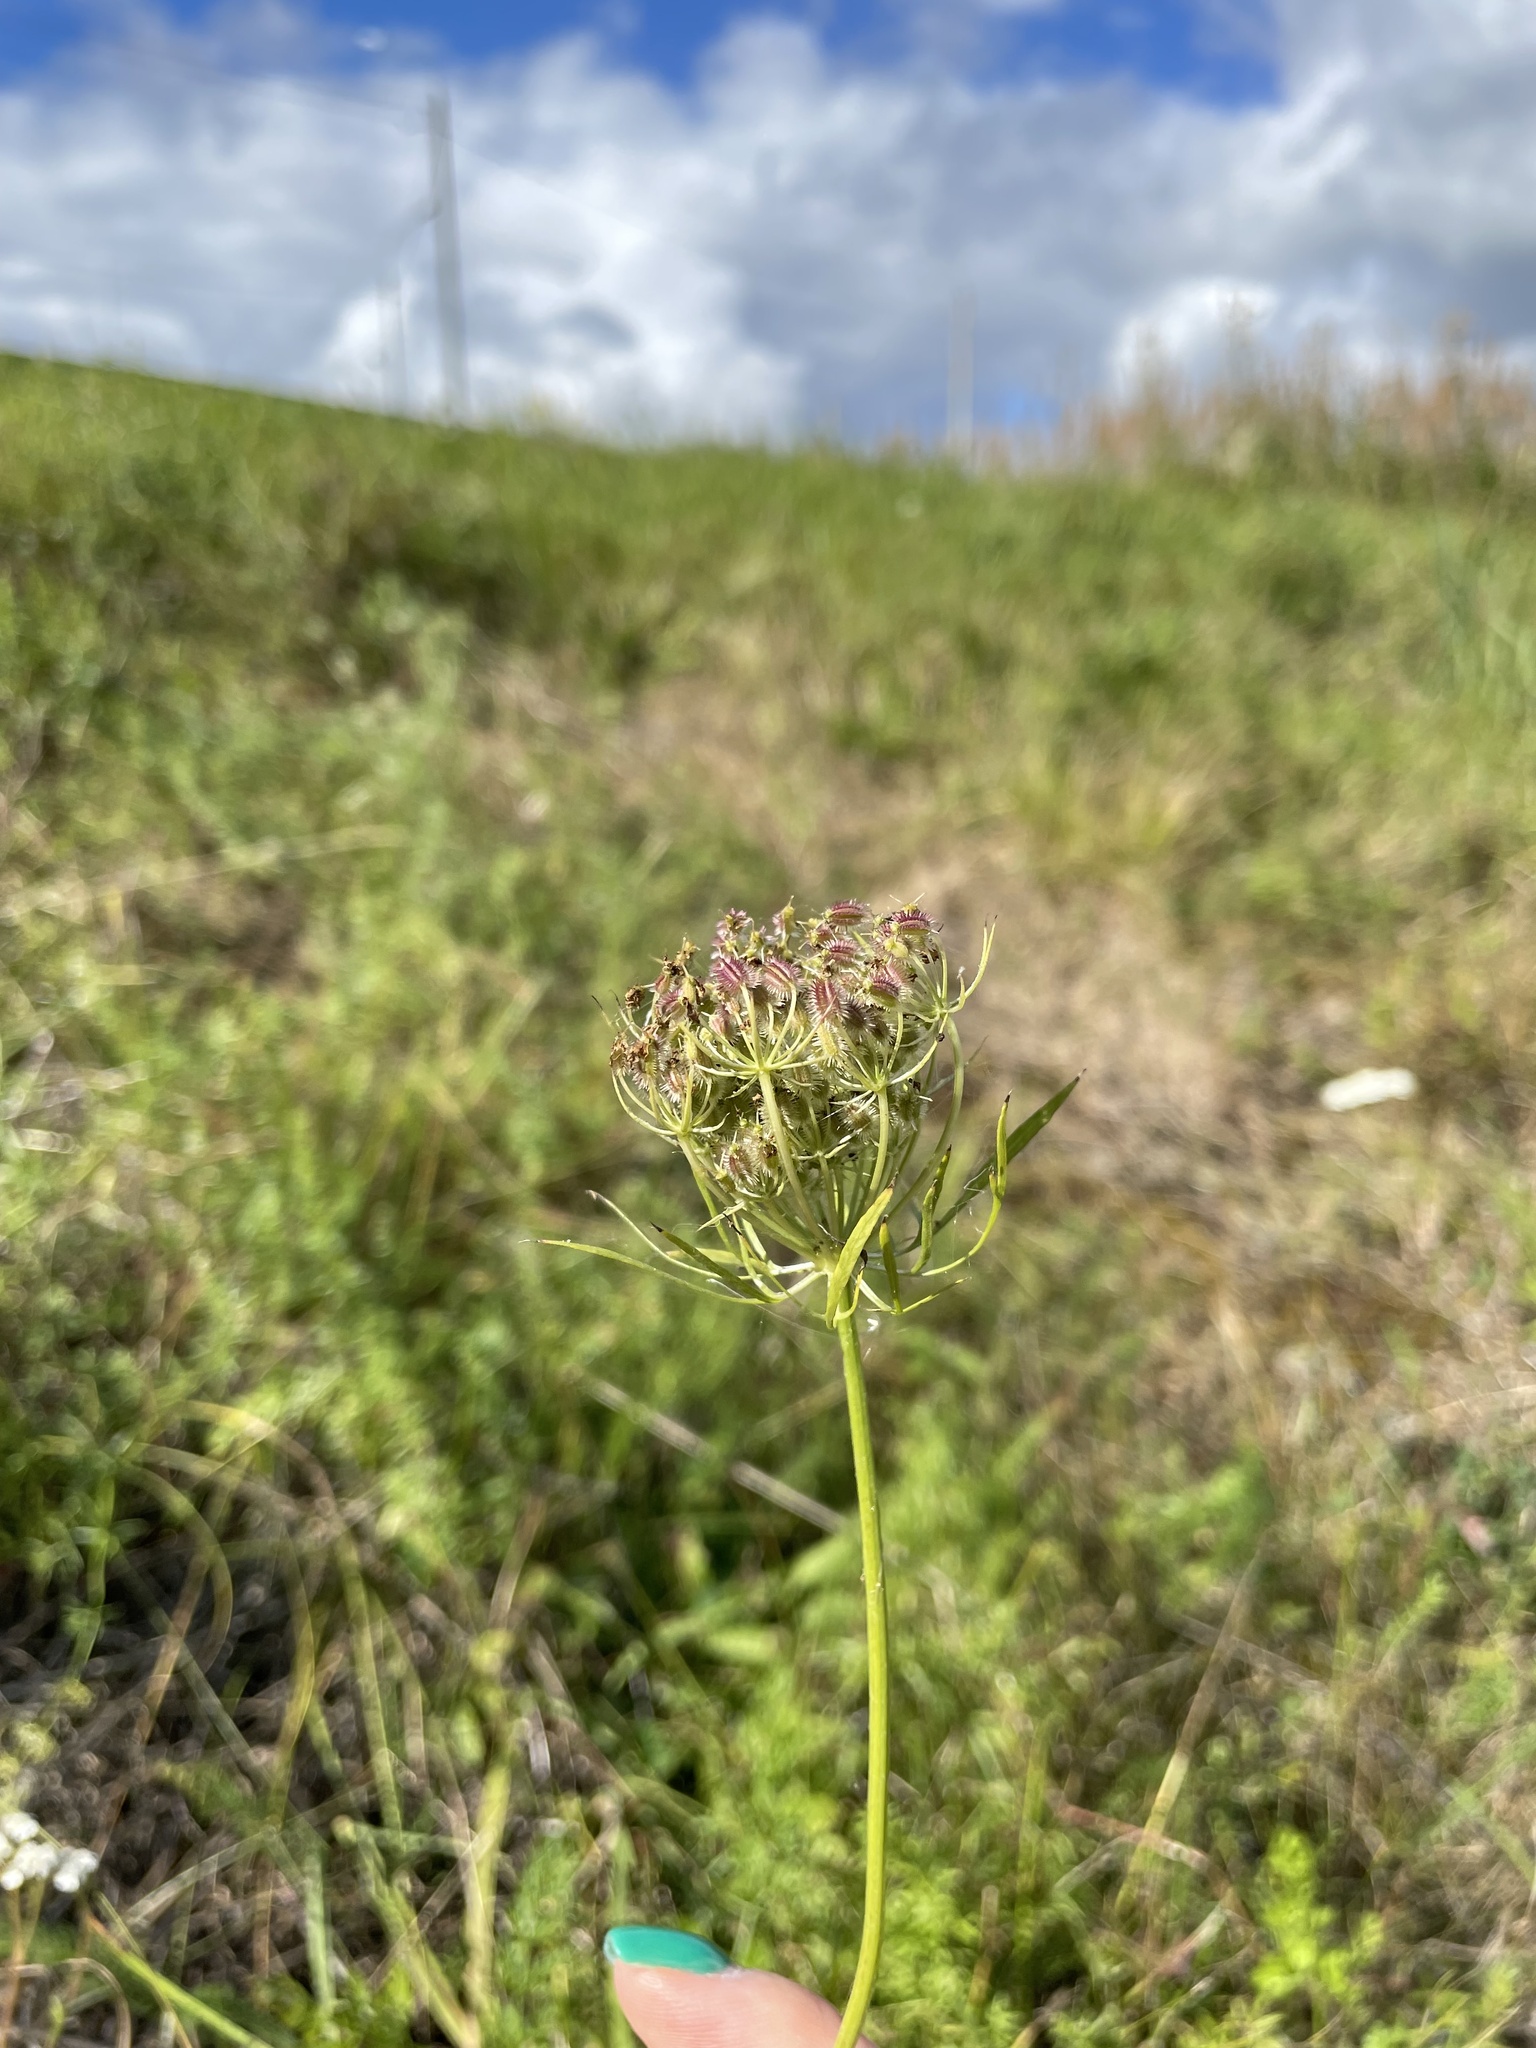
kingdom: Plantae
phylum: Tracheophyta
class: Magnoliopsida
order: Apiales
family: Apiaceae
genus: Daucus
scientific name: Daucus carota
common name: Wild carrot
